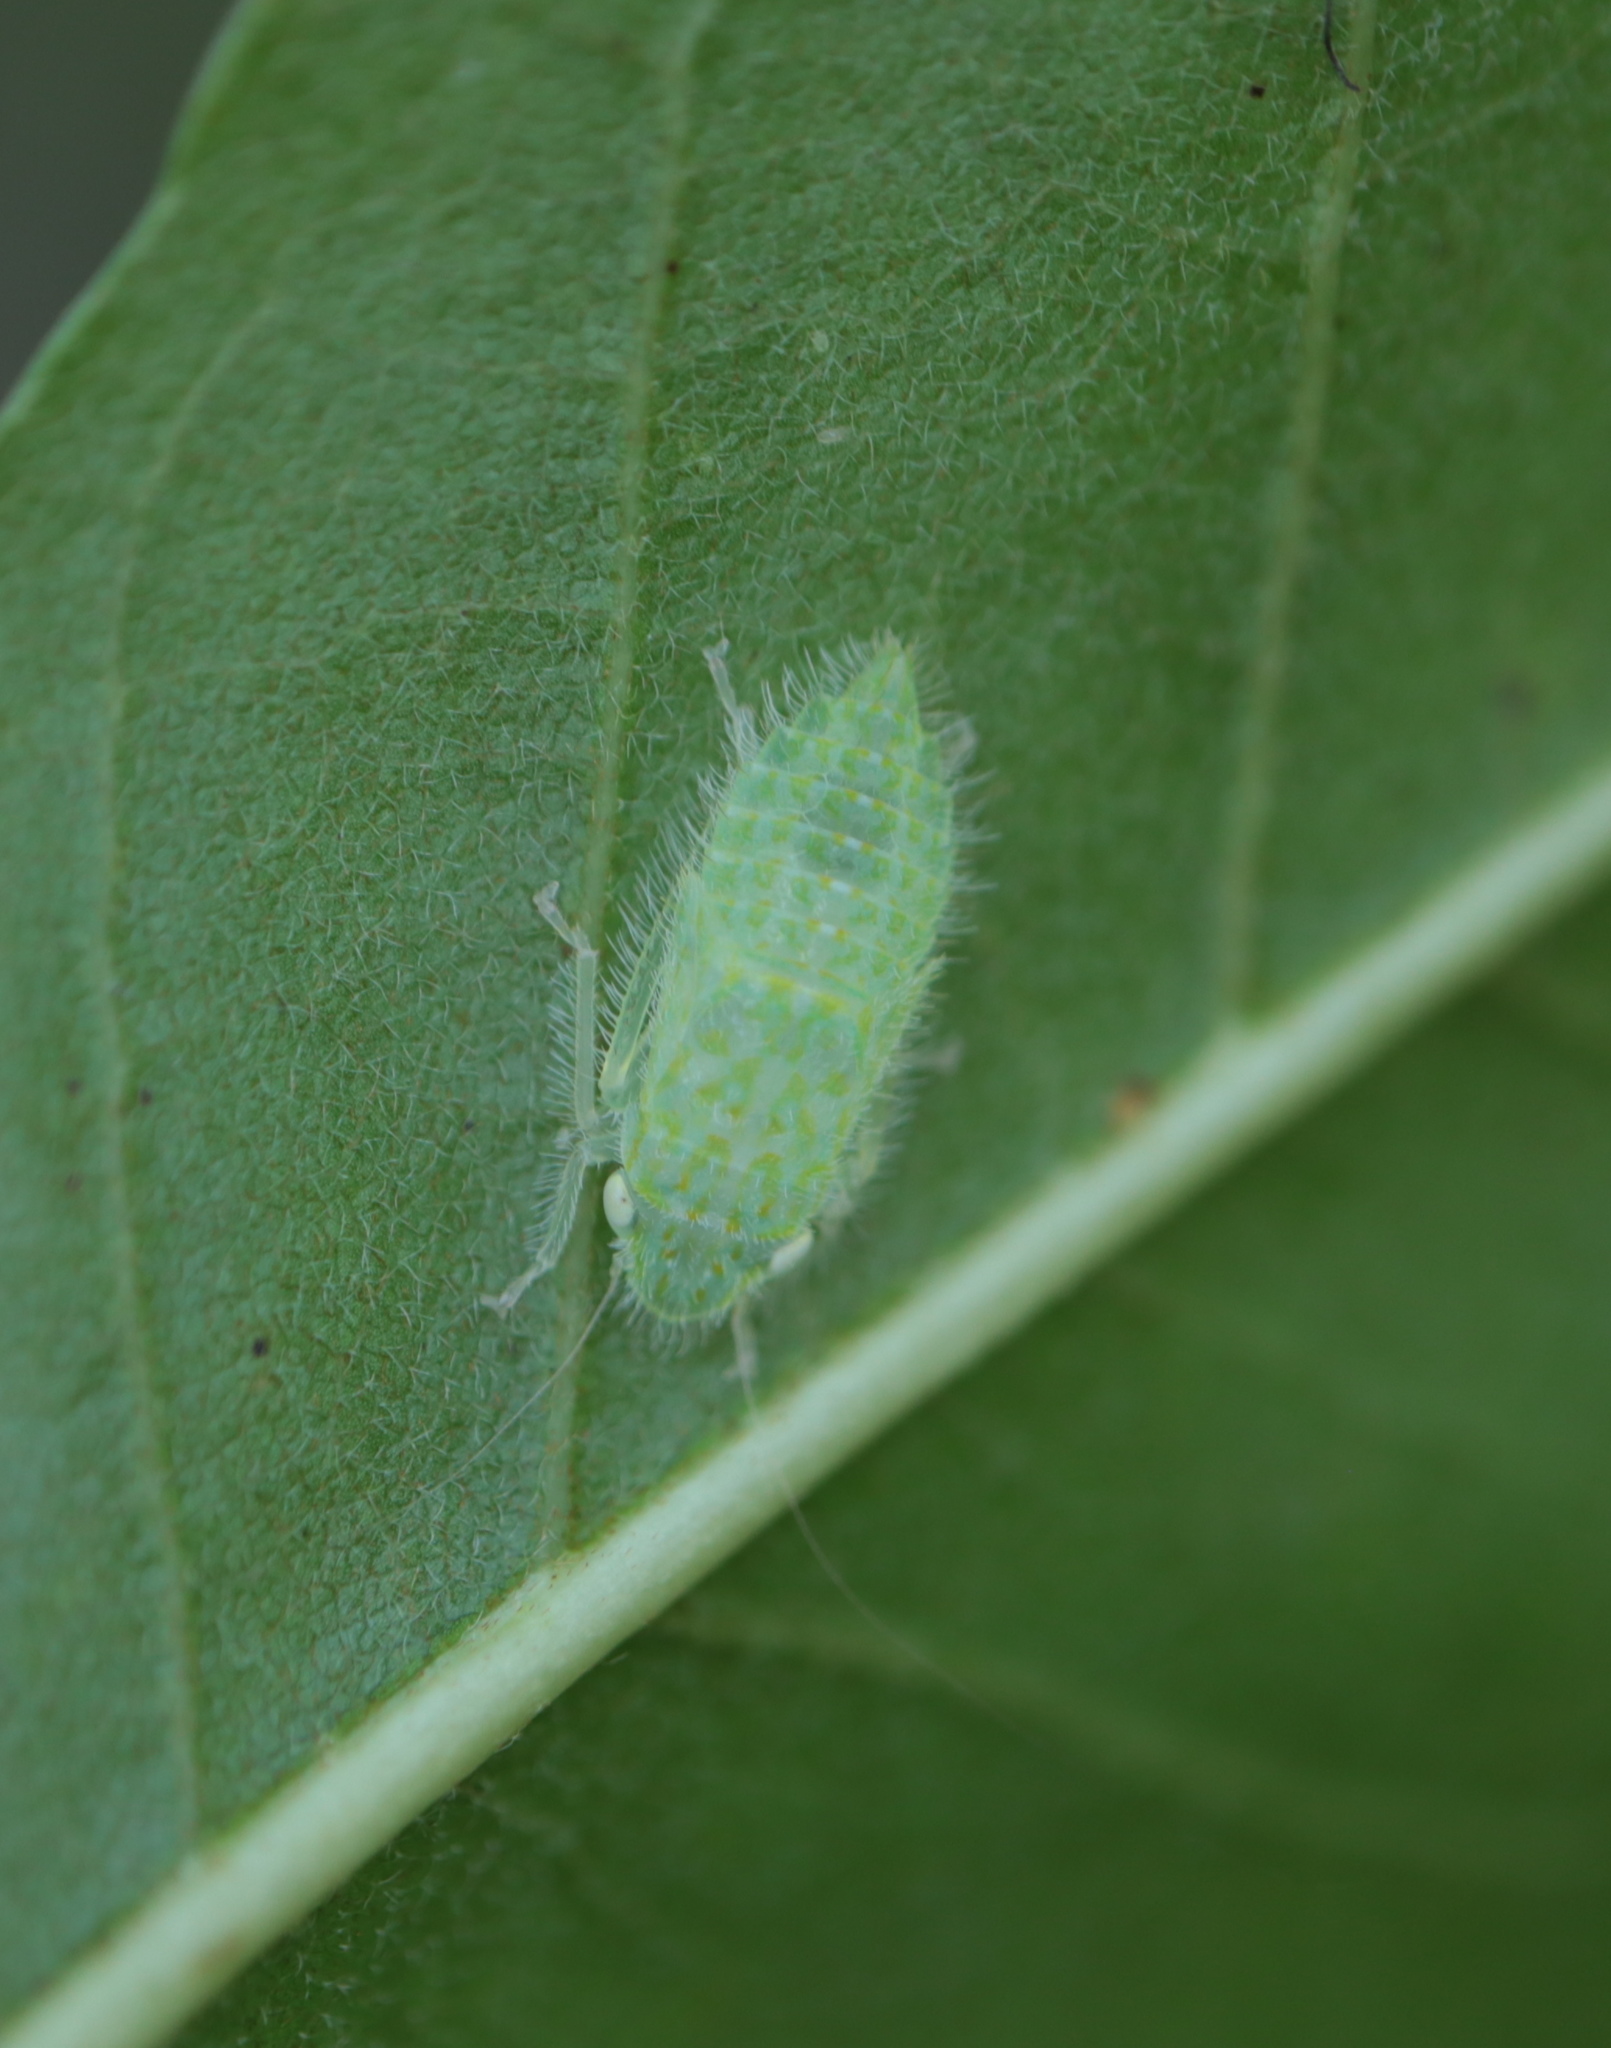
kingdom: Animalia
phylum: Arthropoda
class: Insecta
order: Hemiptera
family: Cicadellidae
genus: Rugosana
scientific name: Rugosana querci
